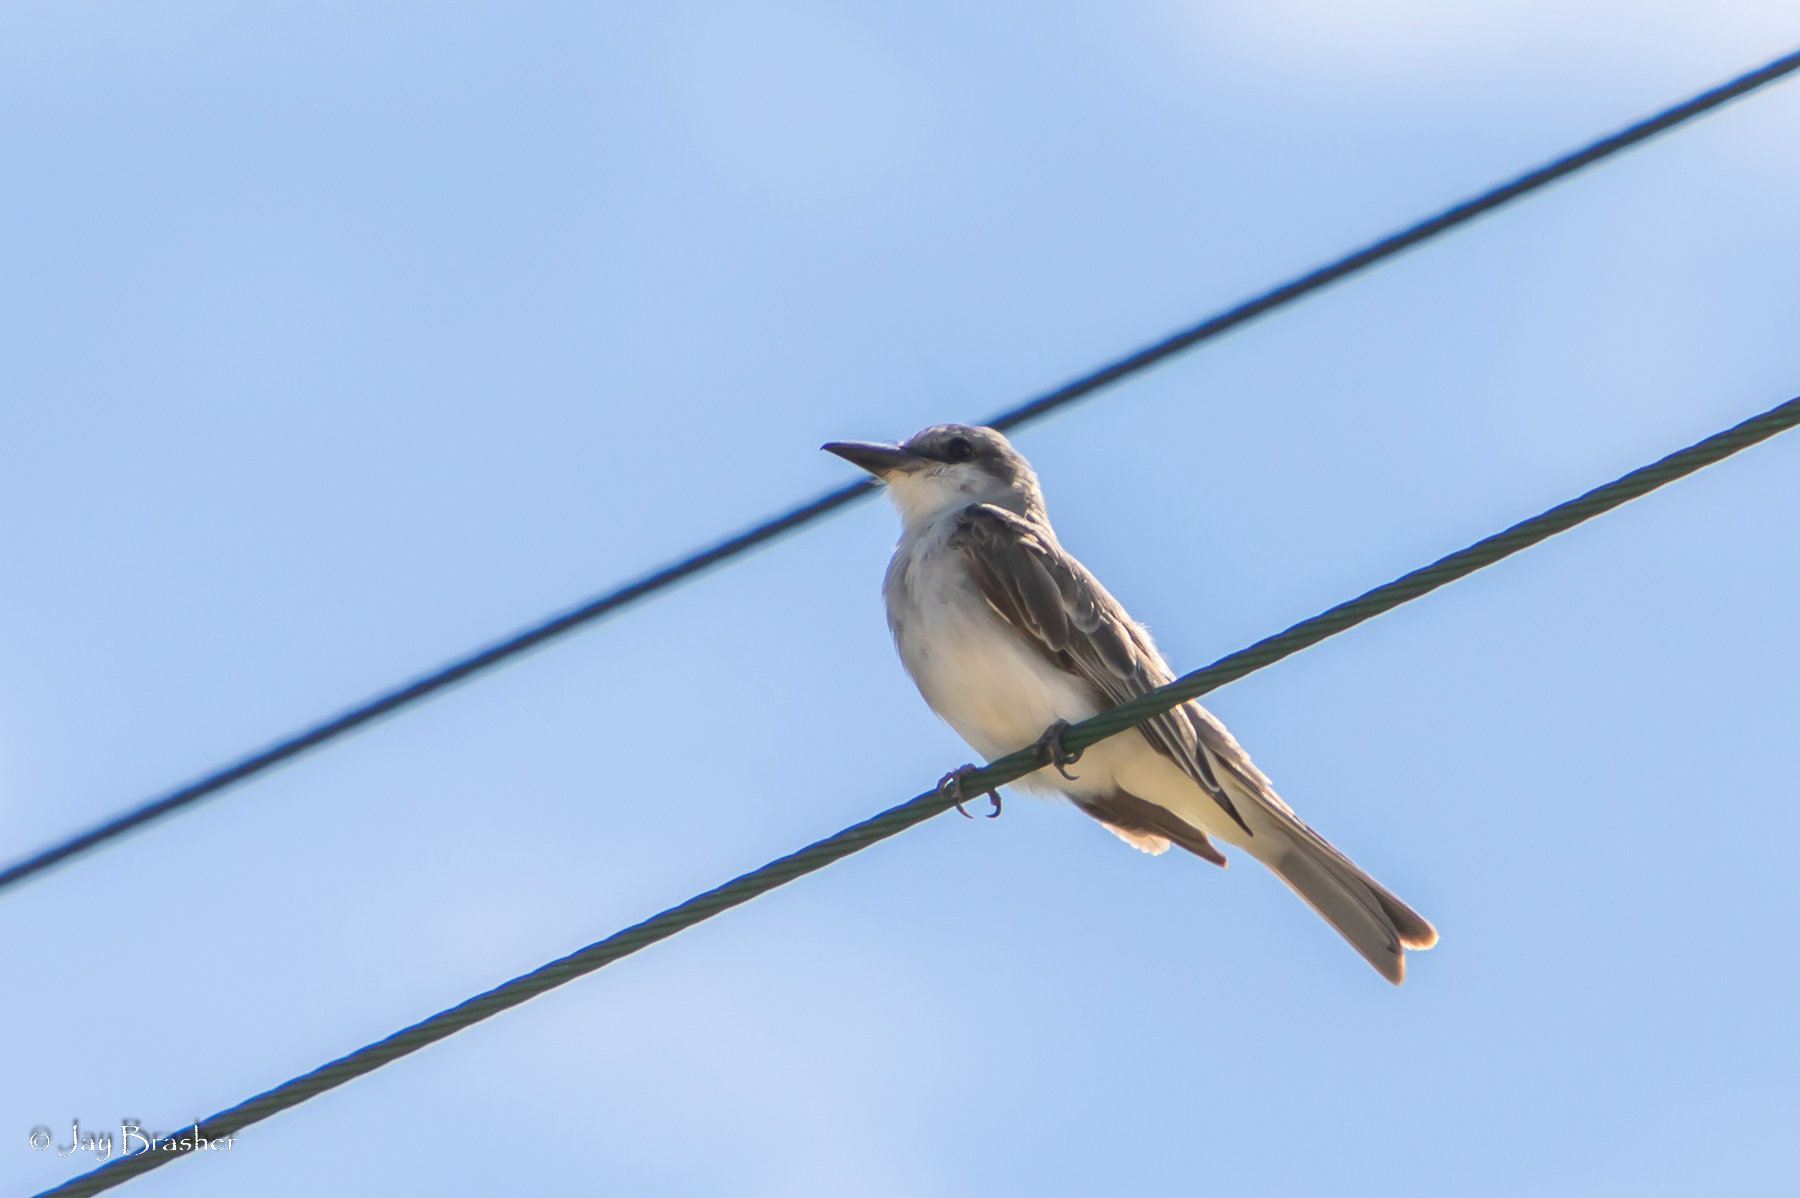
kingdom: Animalia
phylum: Chordata
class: Aves
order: Passeriformes
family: Tyrannidae
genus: Tyrannus
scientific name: Tyrannus dominicensis
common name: Gray kingbird
